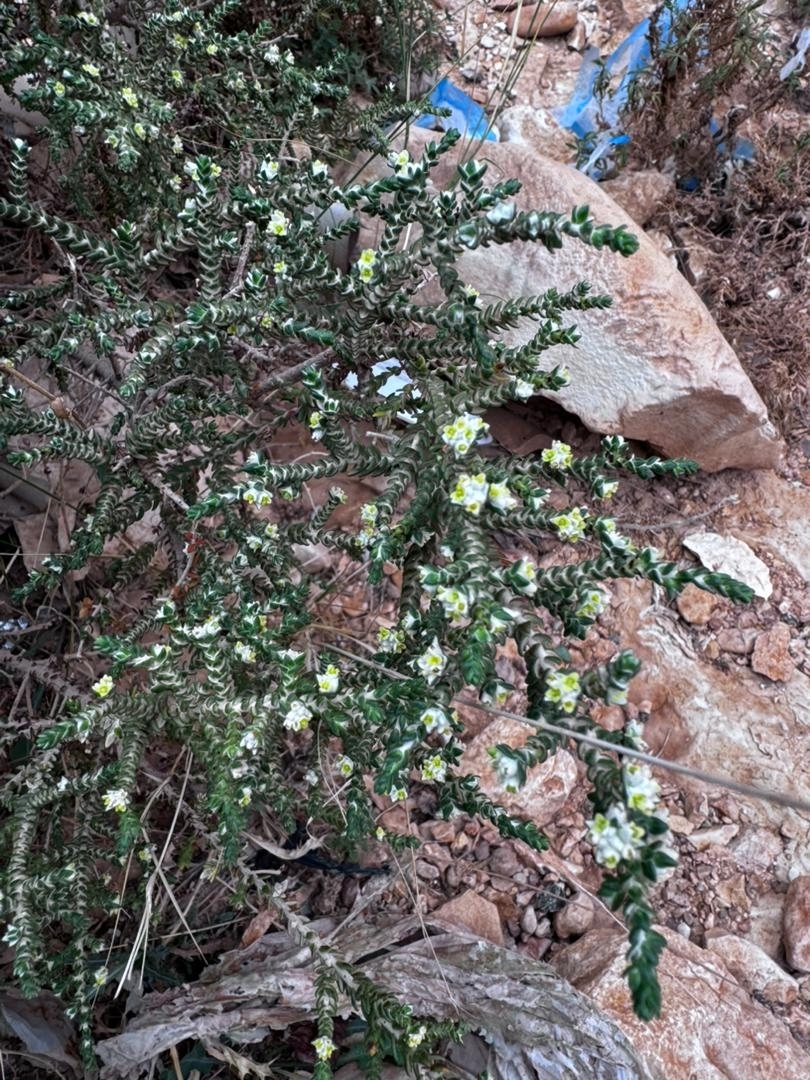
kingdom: Plantae
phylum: Tracheophyta
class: Magnoliopsida
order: Malvales
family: Thymelaeaceae
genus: Thymelaea
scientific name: Thymelaea hirsuta
